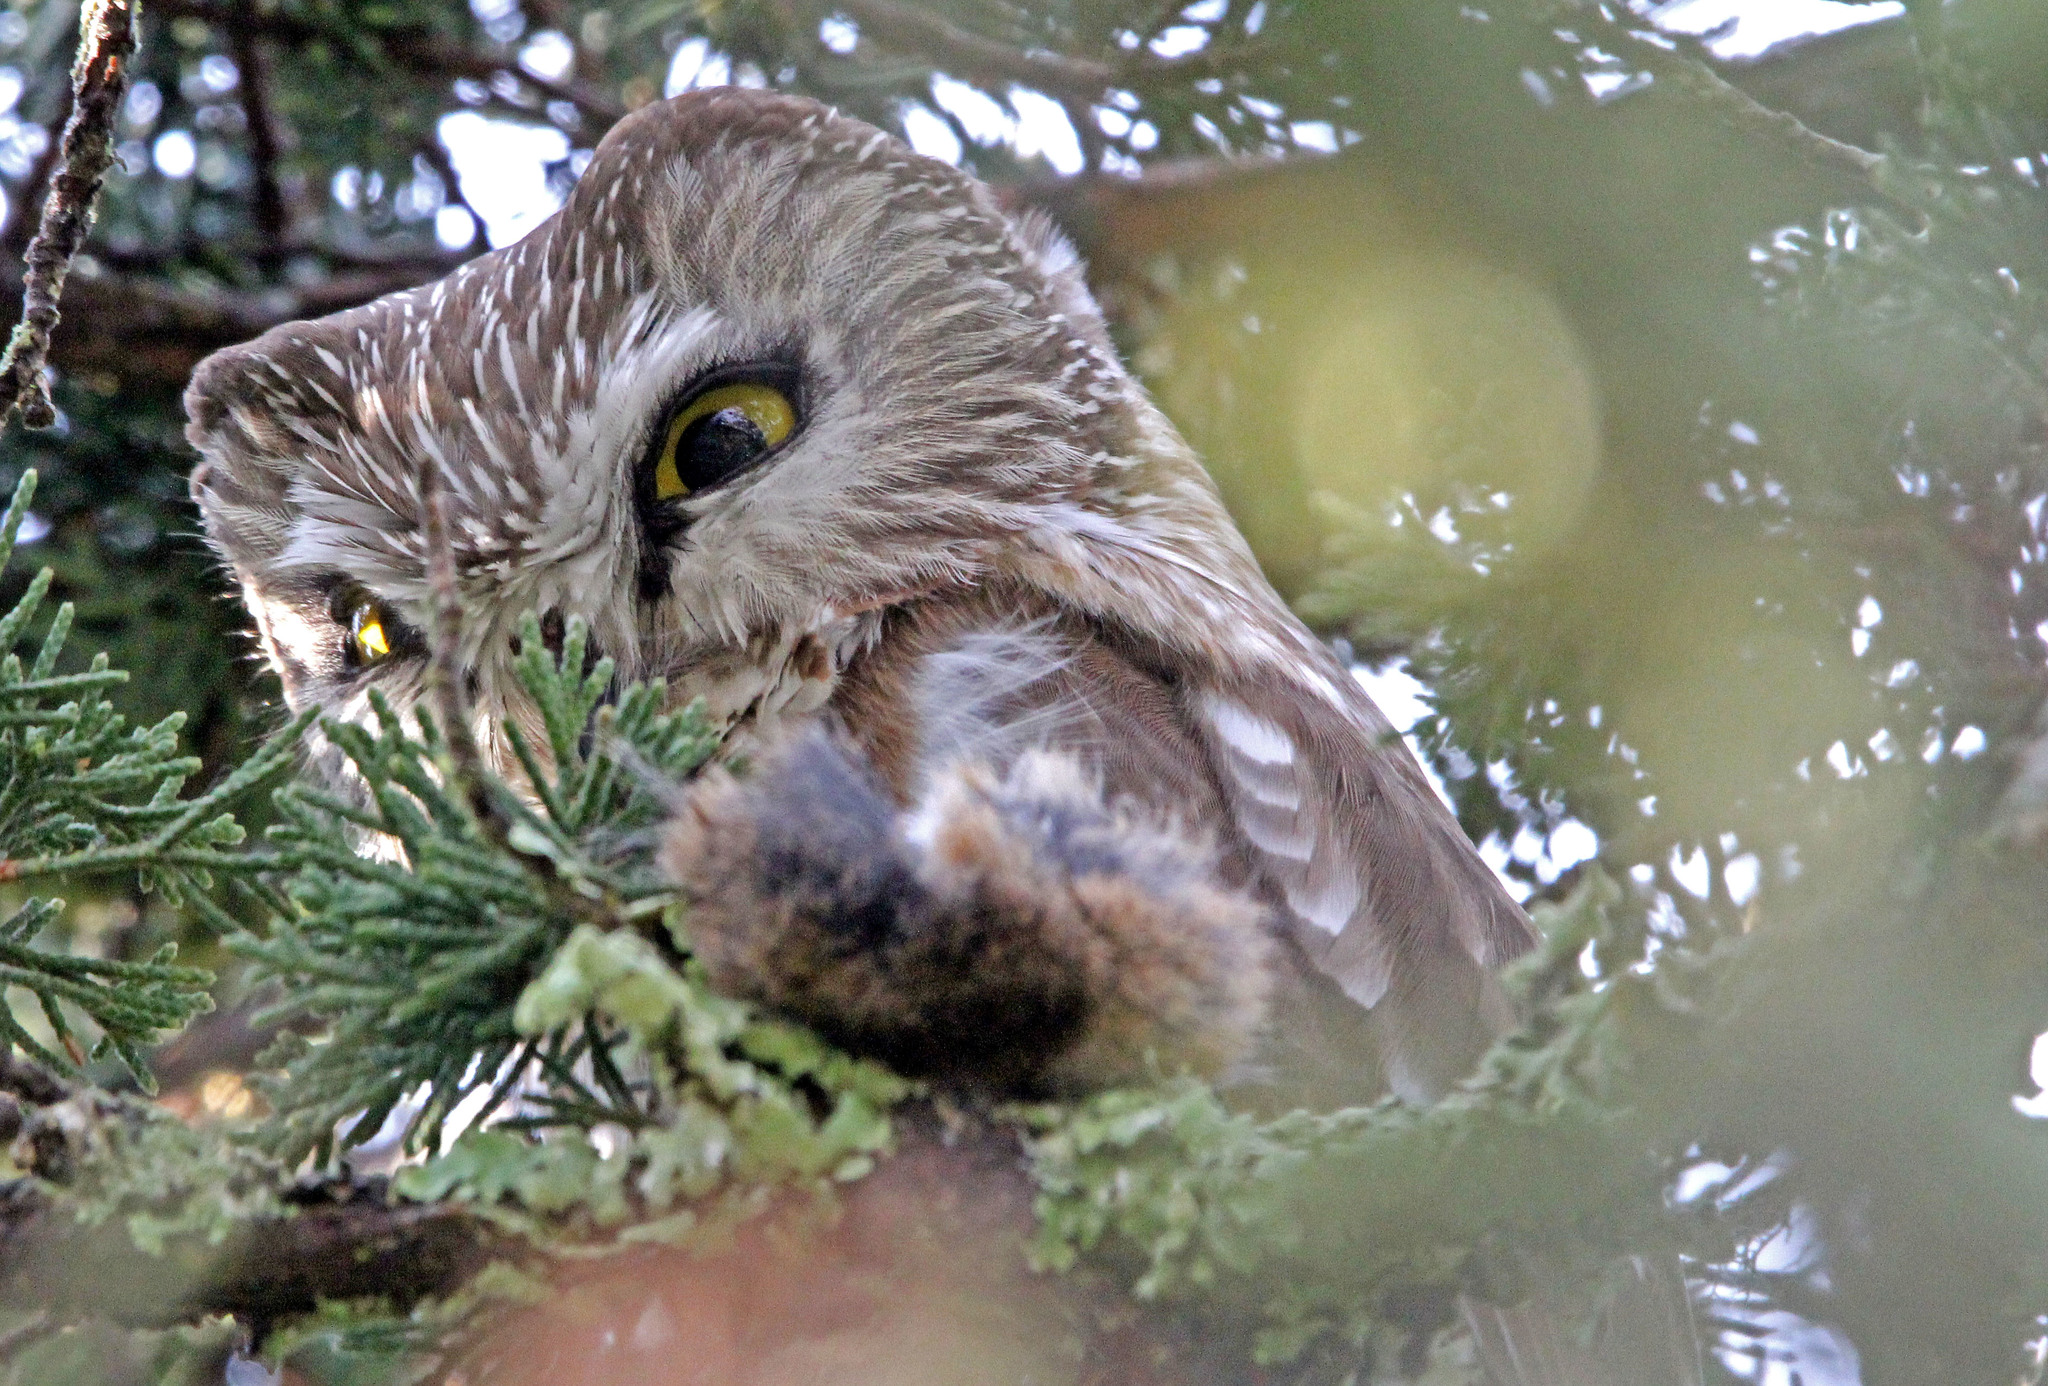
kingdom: Animalia
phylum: Chordata
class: Aves
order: Strigiformes
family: Strigidae
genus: Aegolius
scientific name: Aegolius acadicus
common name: Northern saw-whet owl
